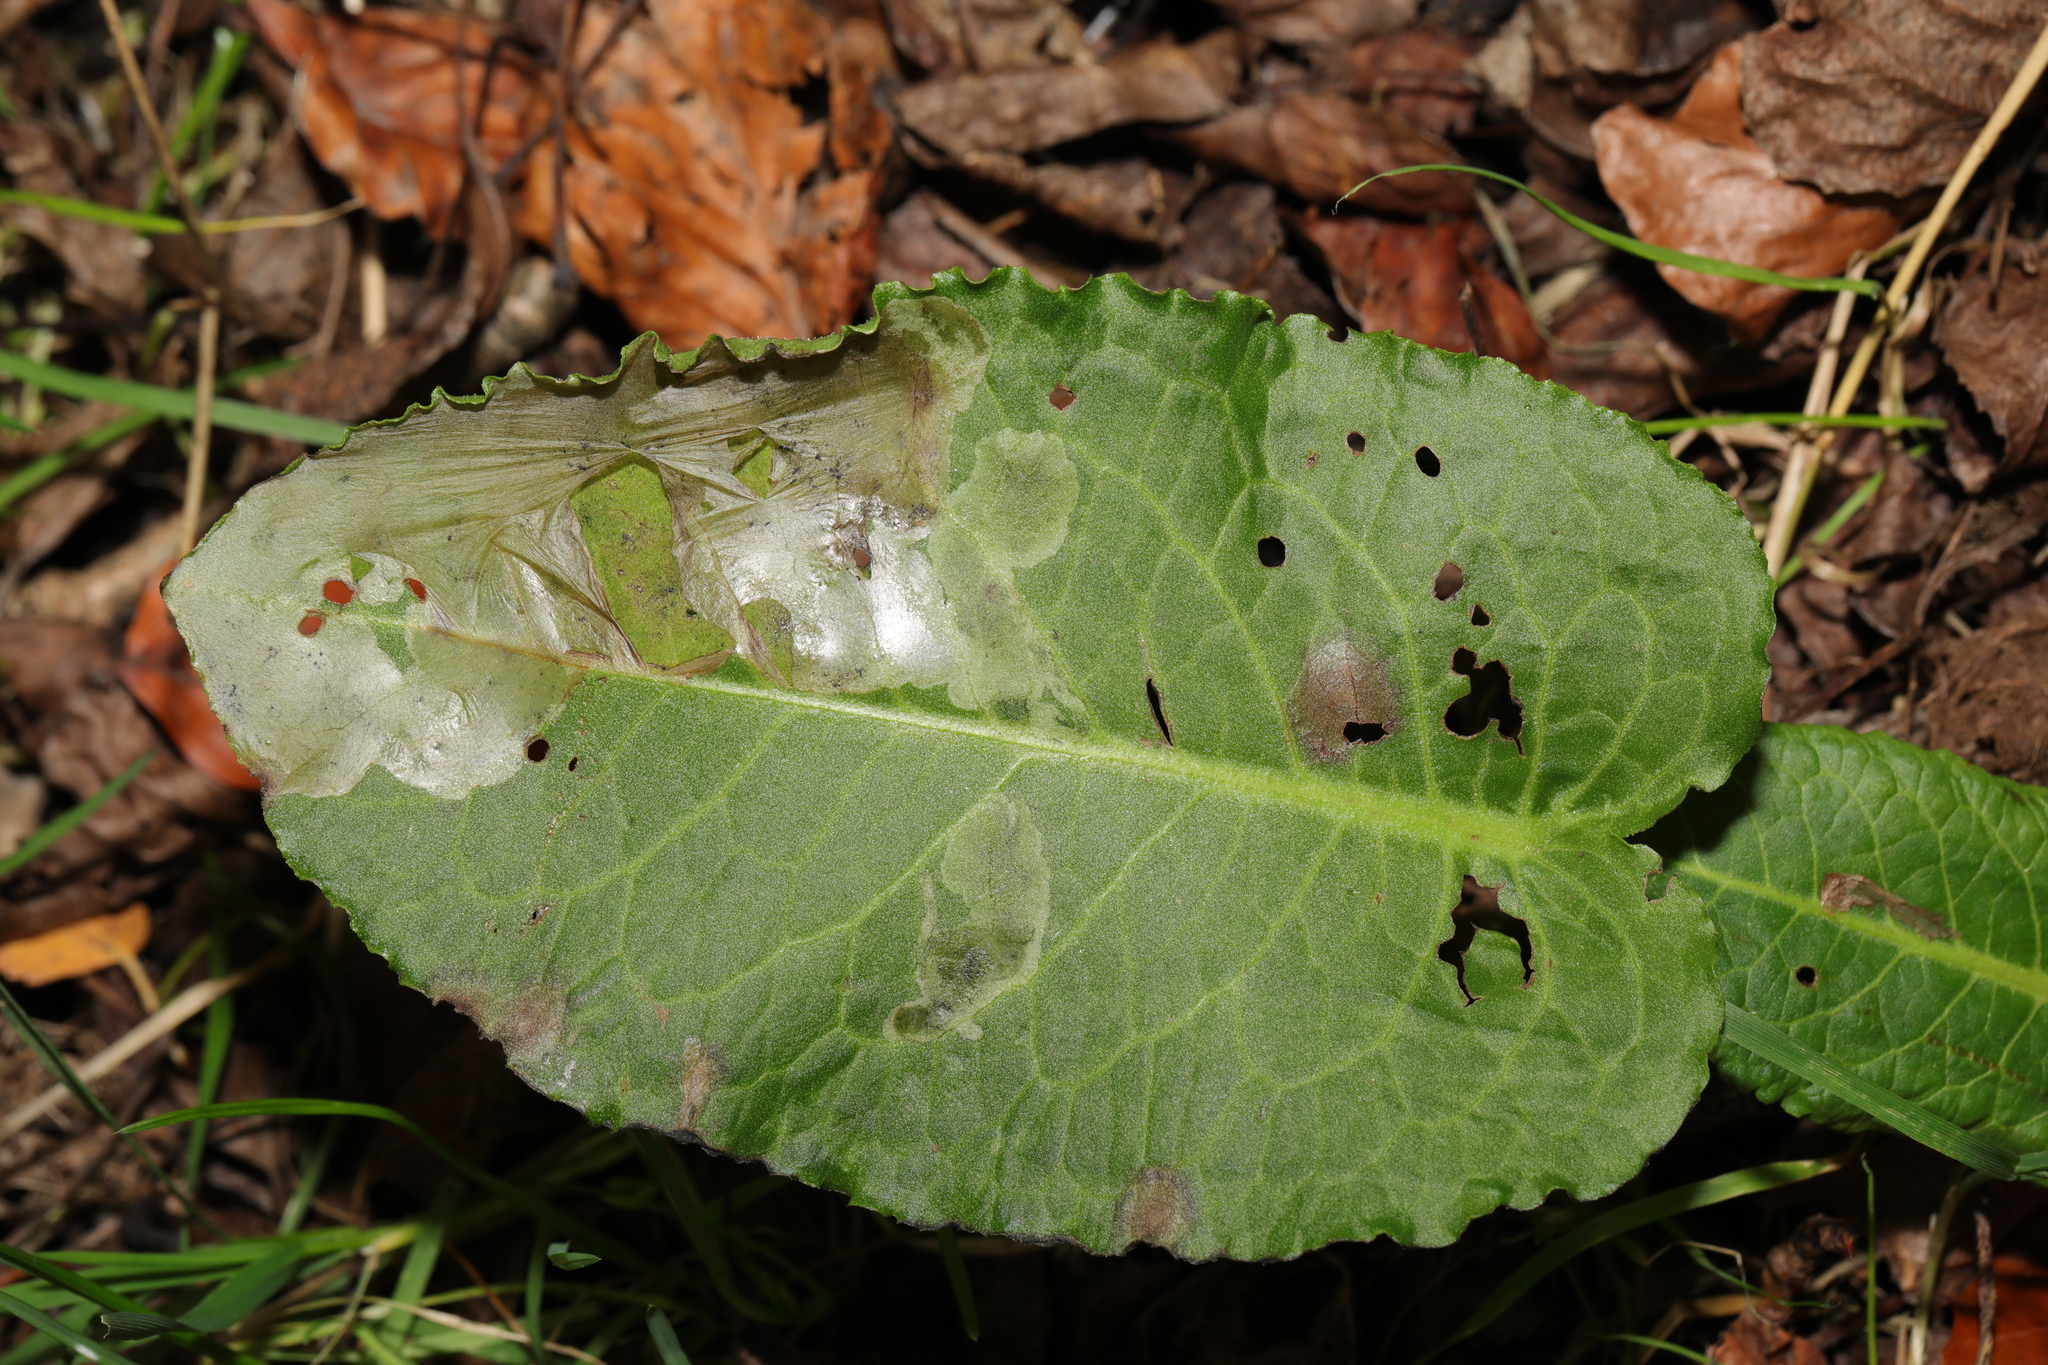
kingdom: Plantae
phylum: Tracheophyta
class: Magnoliopsida
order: Caryophyllales
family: Polygonaceae
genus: Rumex
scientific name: Rumex obtusifolius
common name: Bitter dock
